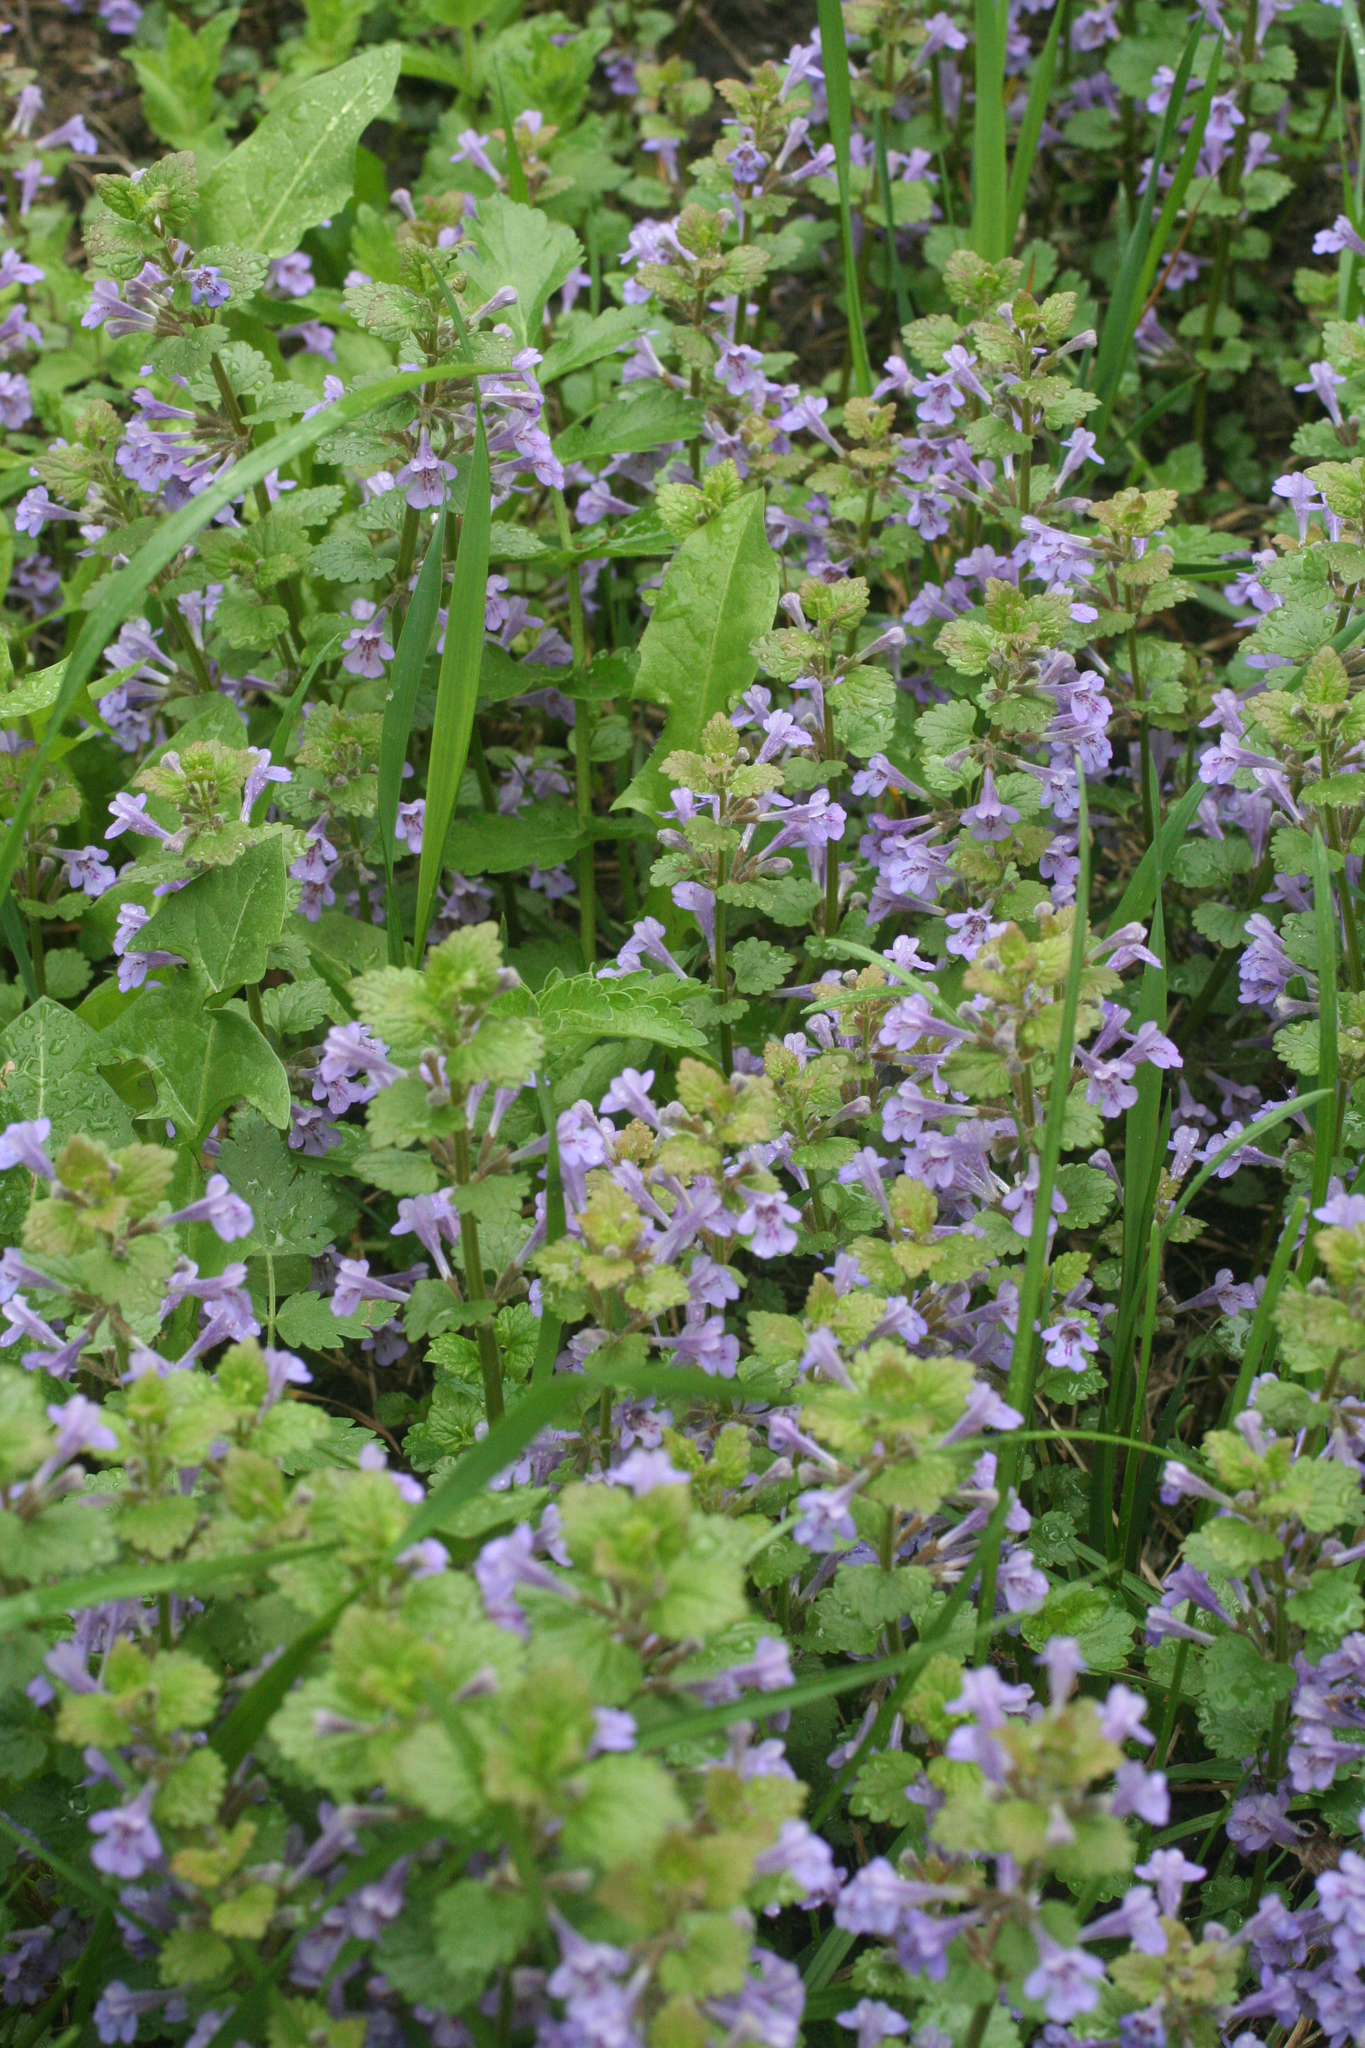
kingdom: Plantae
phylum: Tracheophyta
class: Magnoliopsida
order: Lamiales
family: Lamiaceae
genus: Glechoma
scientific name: Glechoma hederacea
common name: Ground ivy
